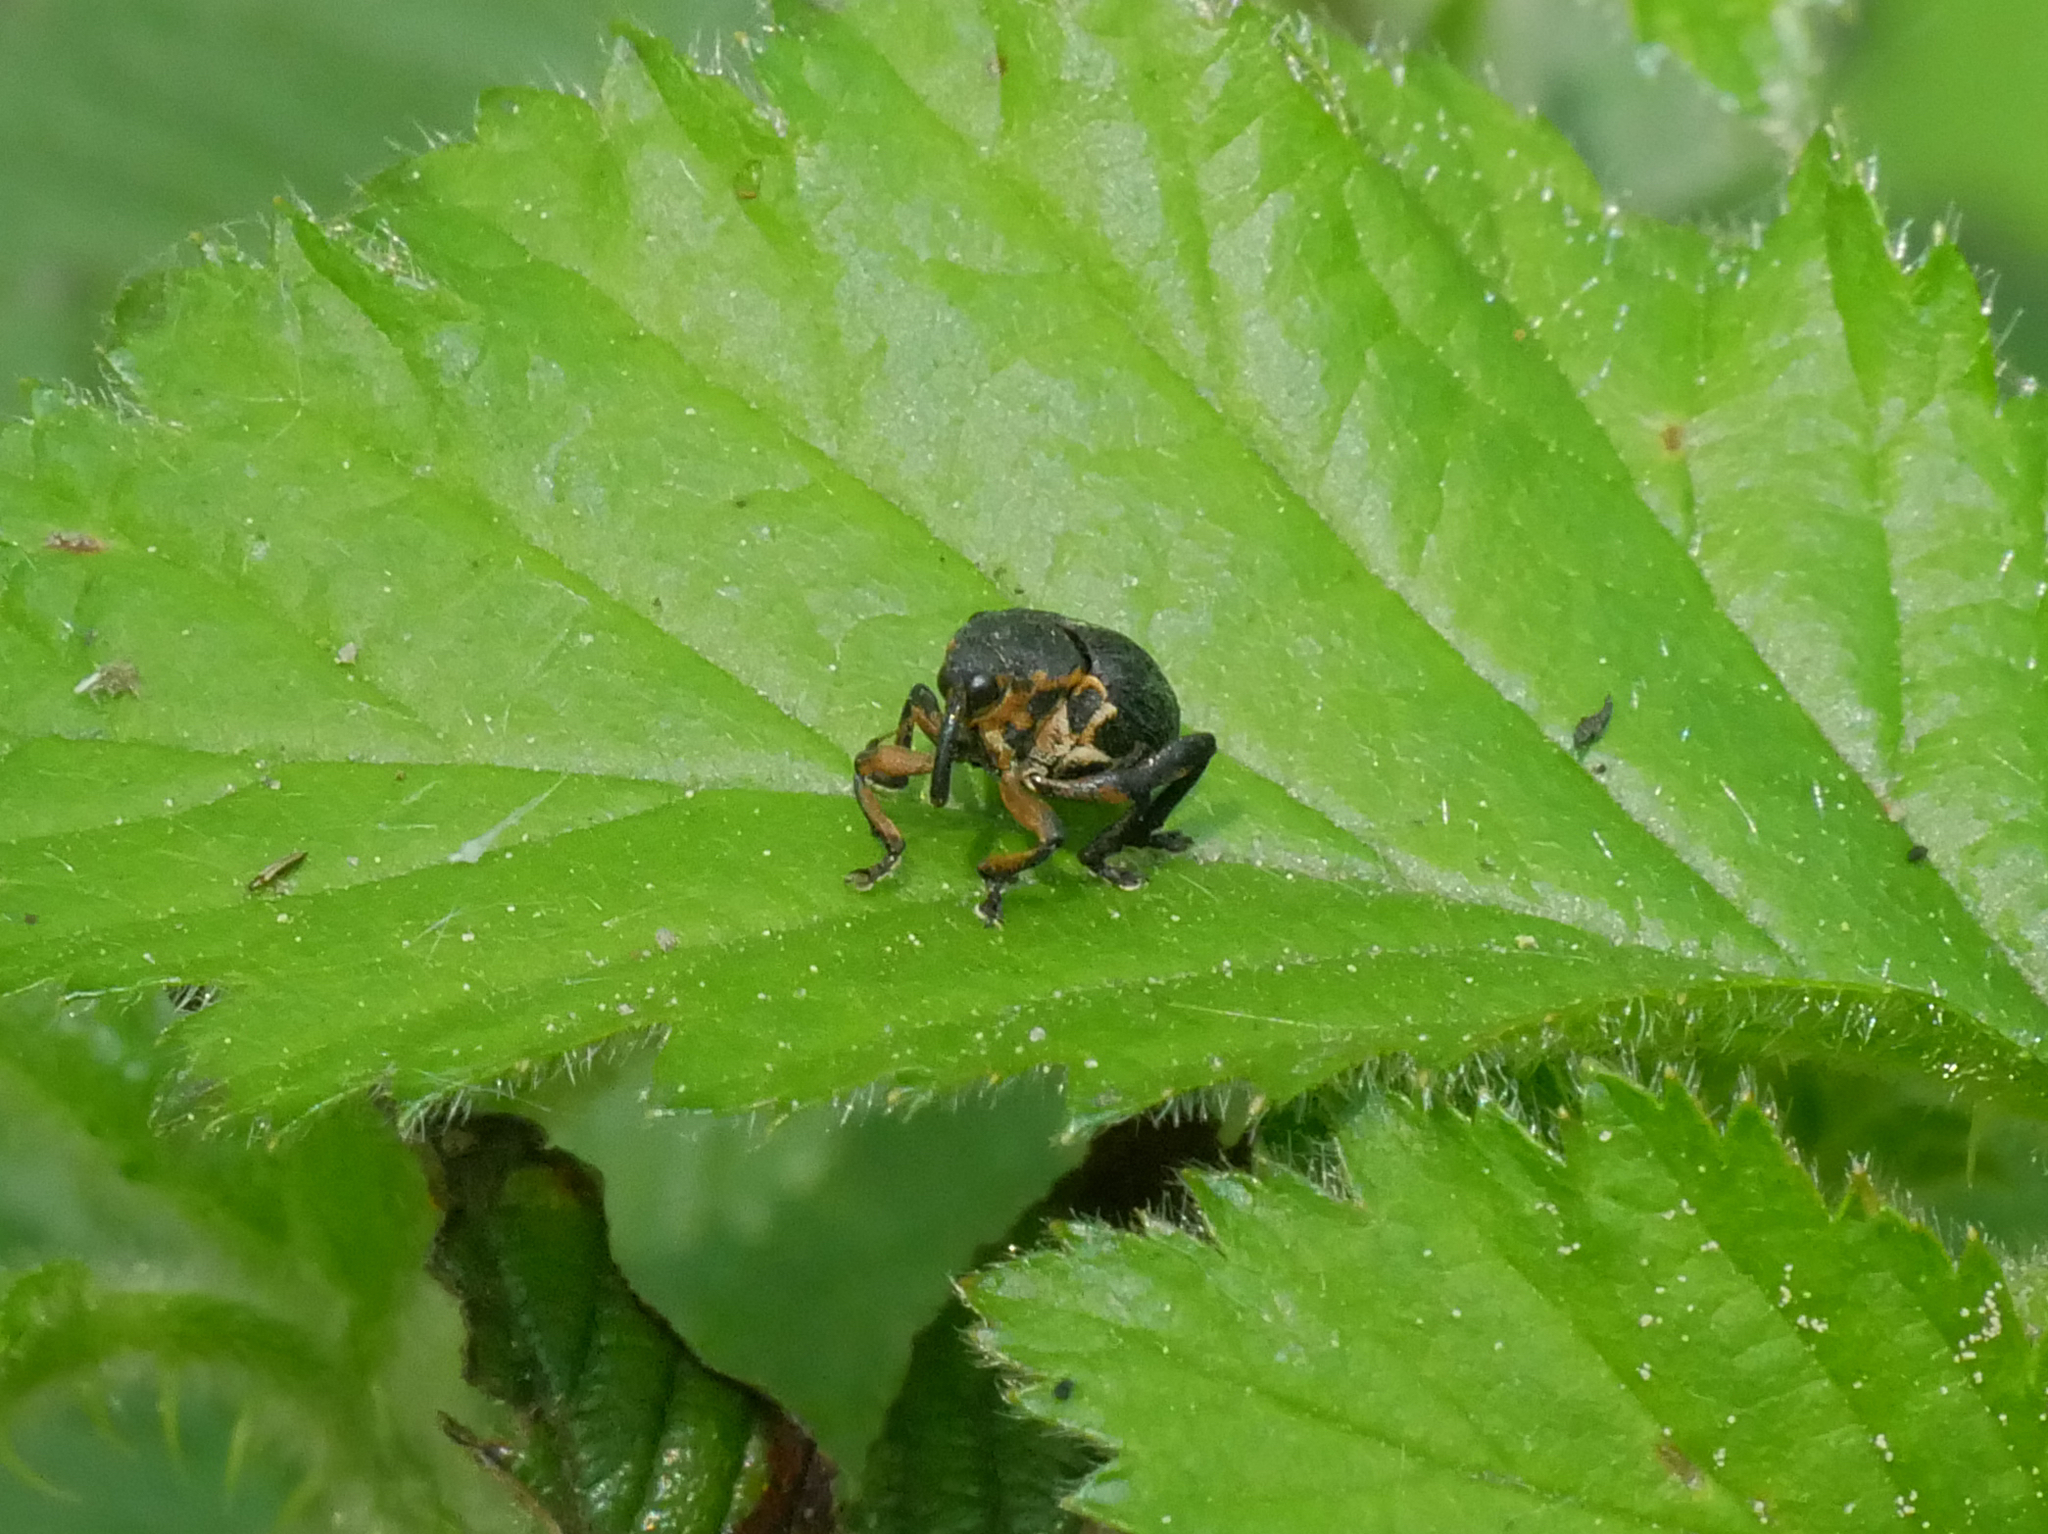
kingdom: Animalia
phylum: Arthropoda
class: Insecta
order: Coleoptera
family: Curculionidae
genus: Mononychus
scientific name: Mononychus punctumalbum
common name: Iris weevil
